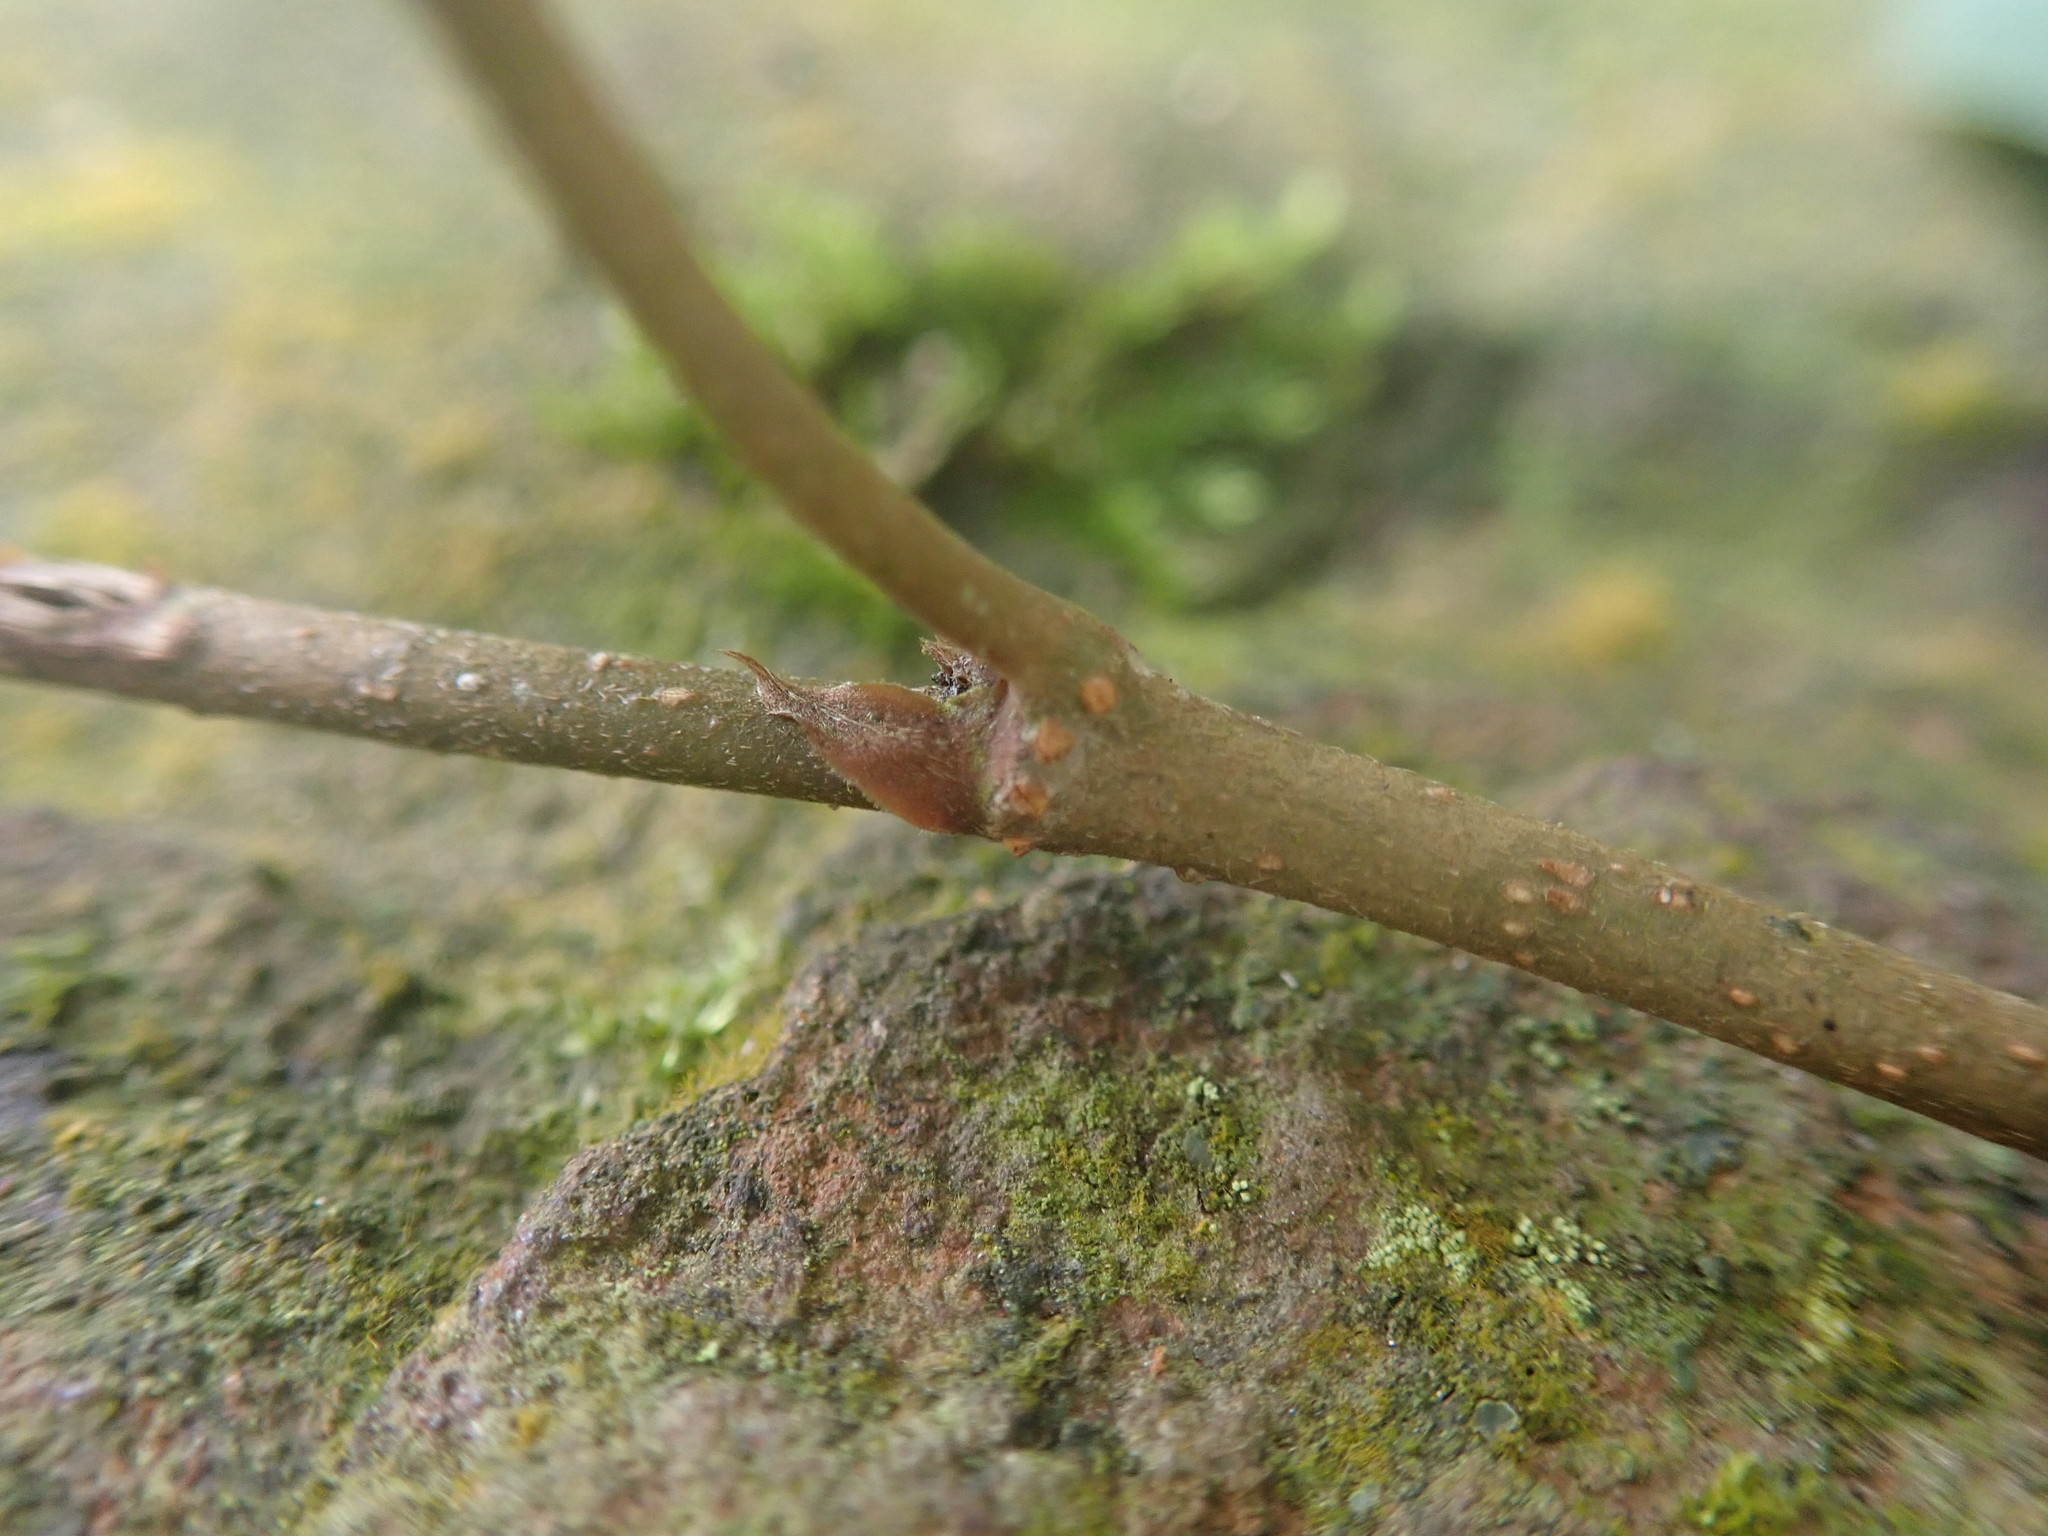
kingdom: Plantae
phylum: Tracheophyta
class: Magnoliopsida
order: Rosales
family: Moraceae
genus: Ficus
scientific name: Ficus sarmentosa
